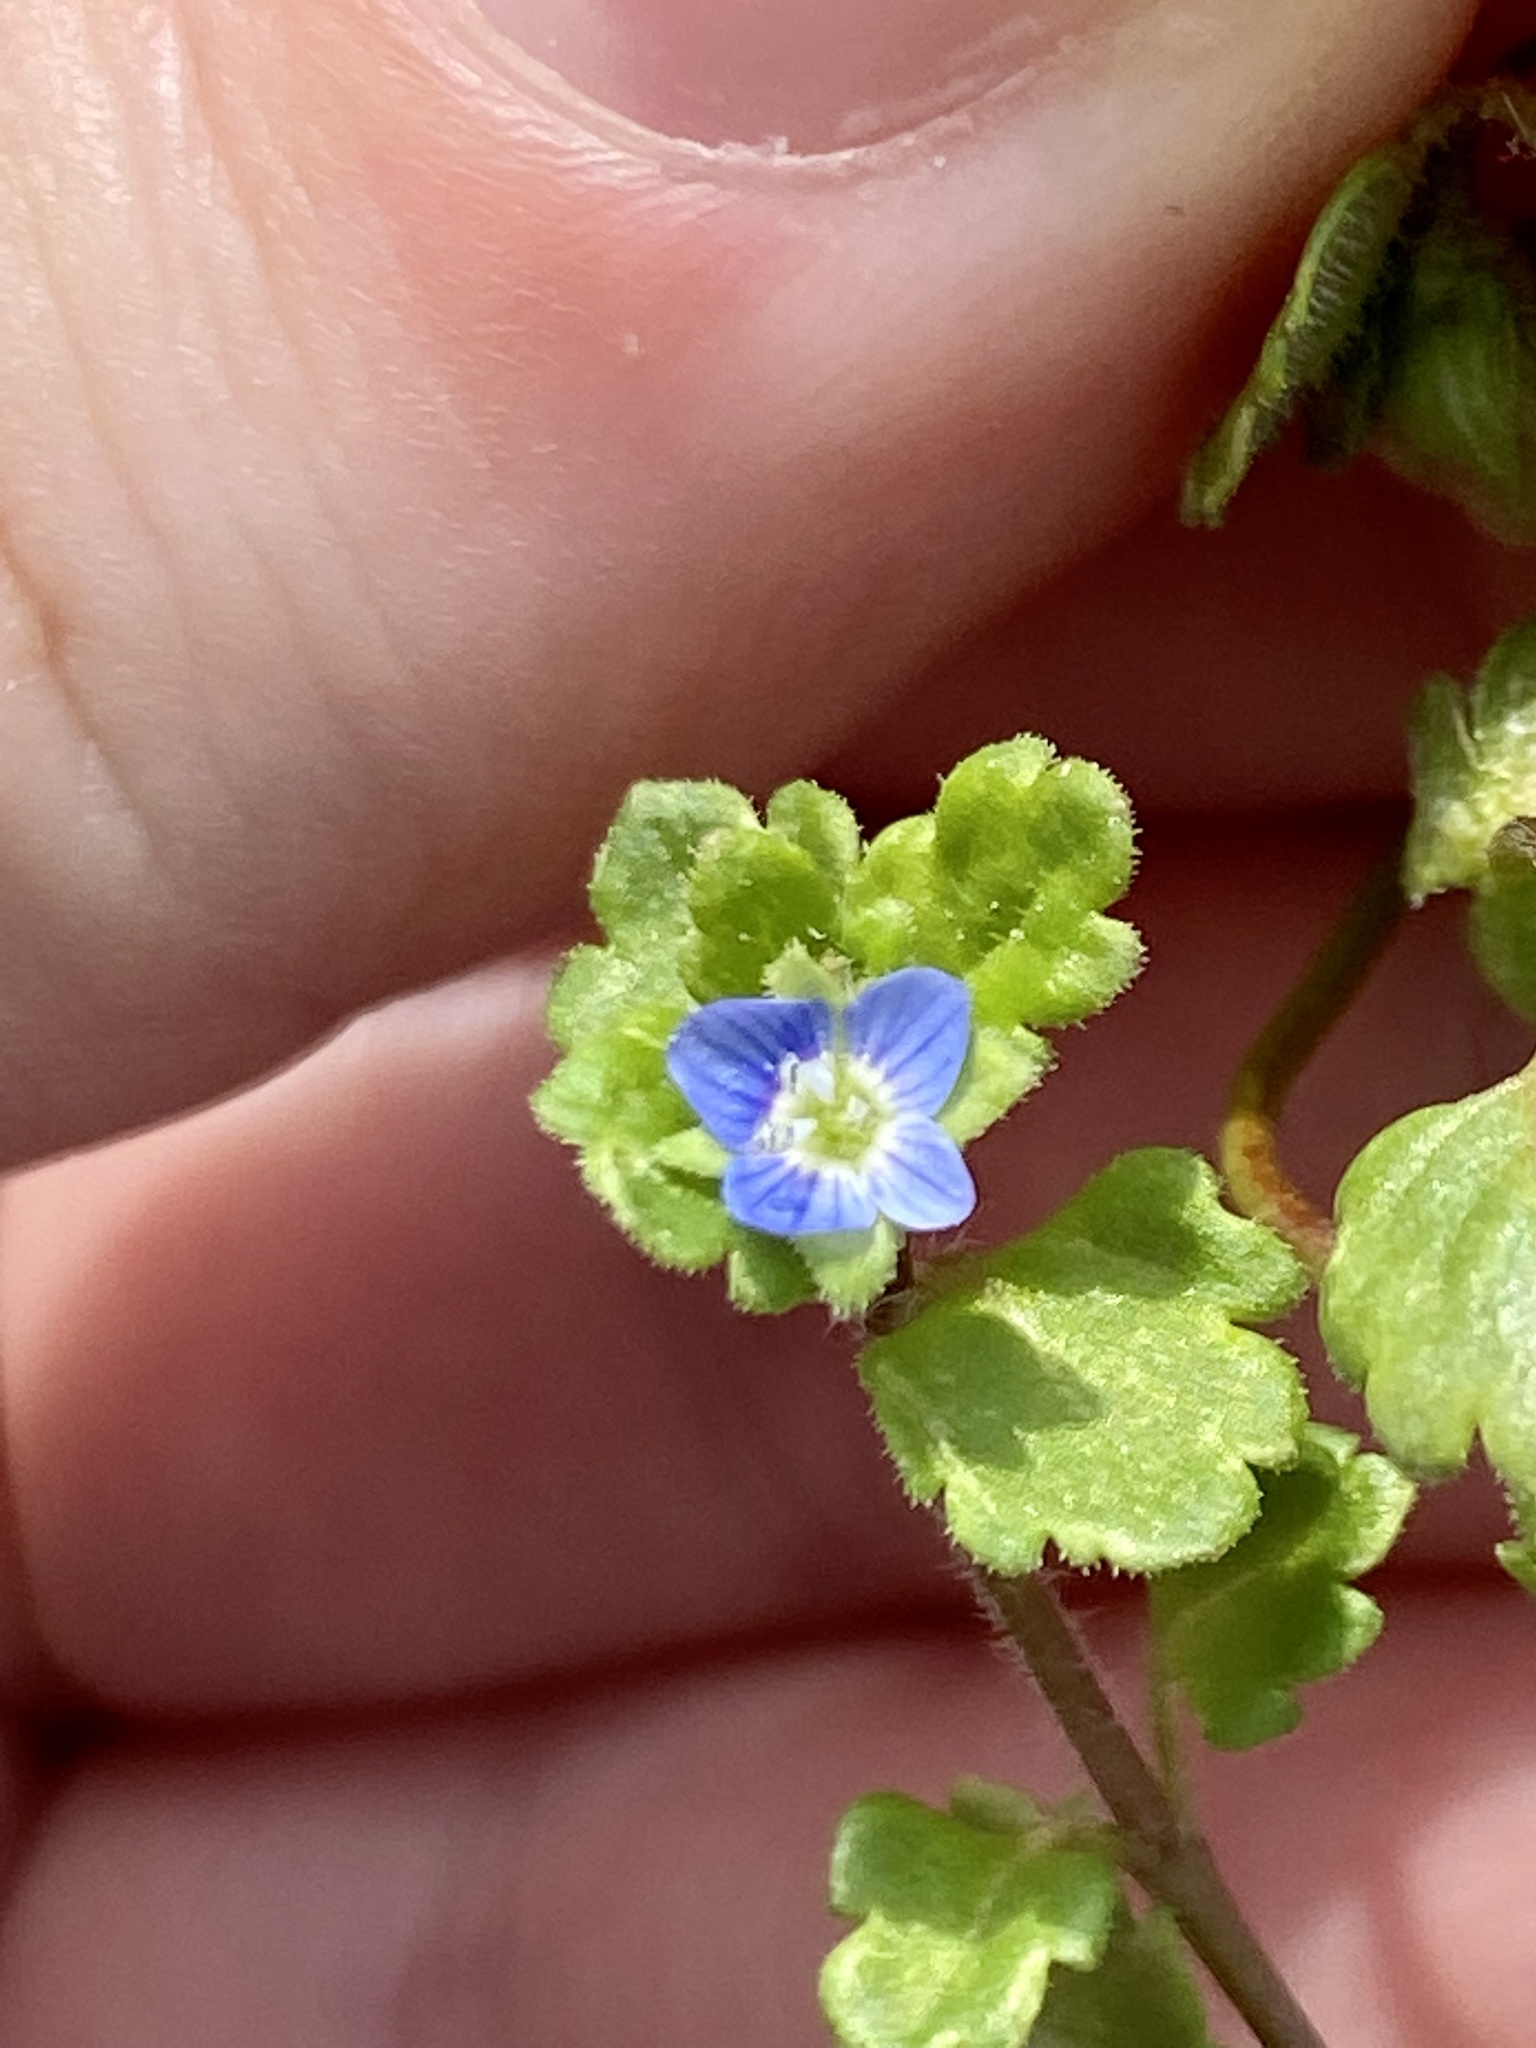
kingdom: Plantae
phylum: Tracheophyta
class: Magnoliopsida
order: Lamiales
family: Plantaginaceae
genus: Veronica
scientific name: Veronica polita
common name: Grey field-speedwell
